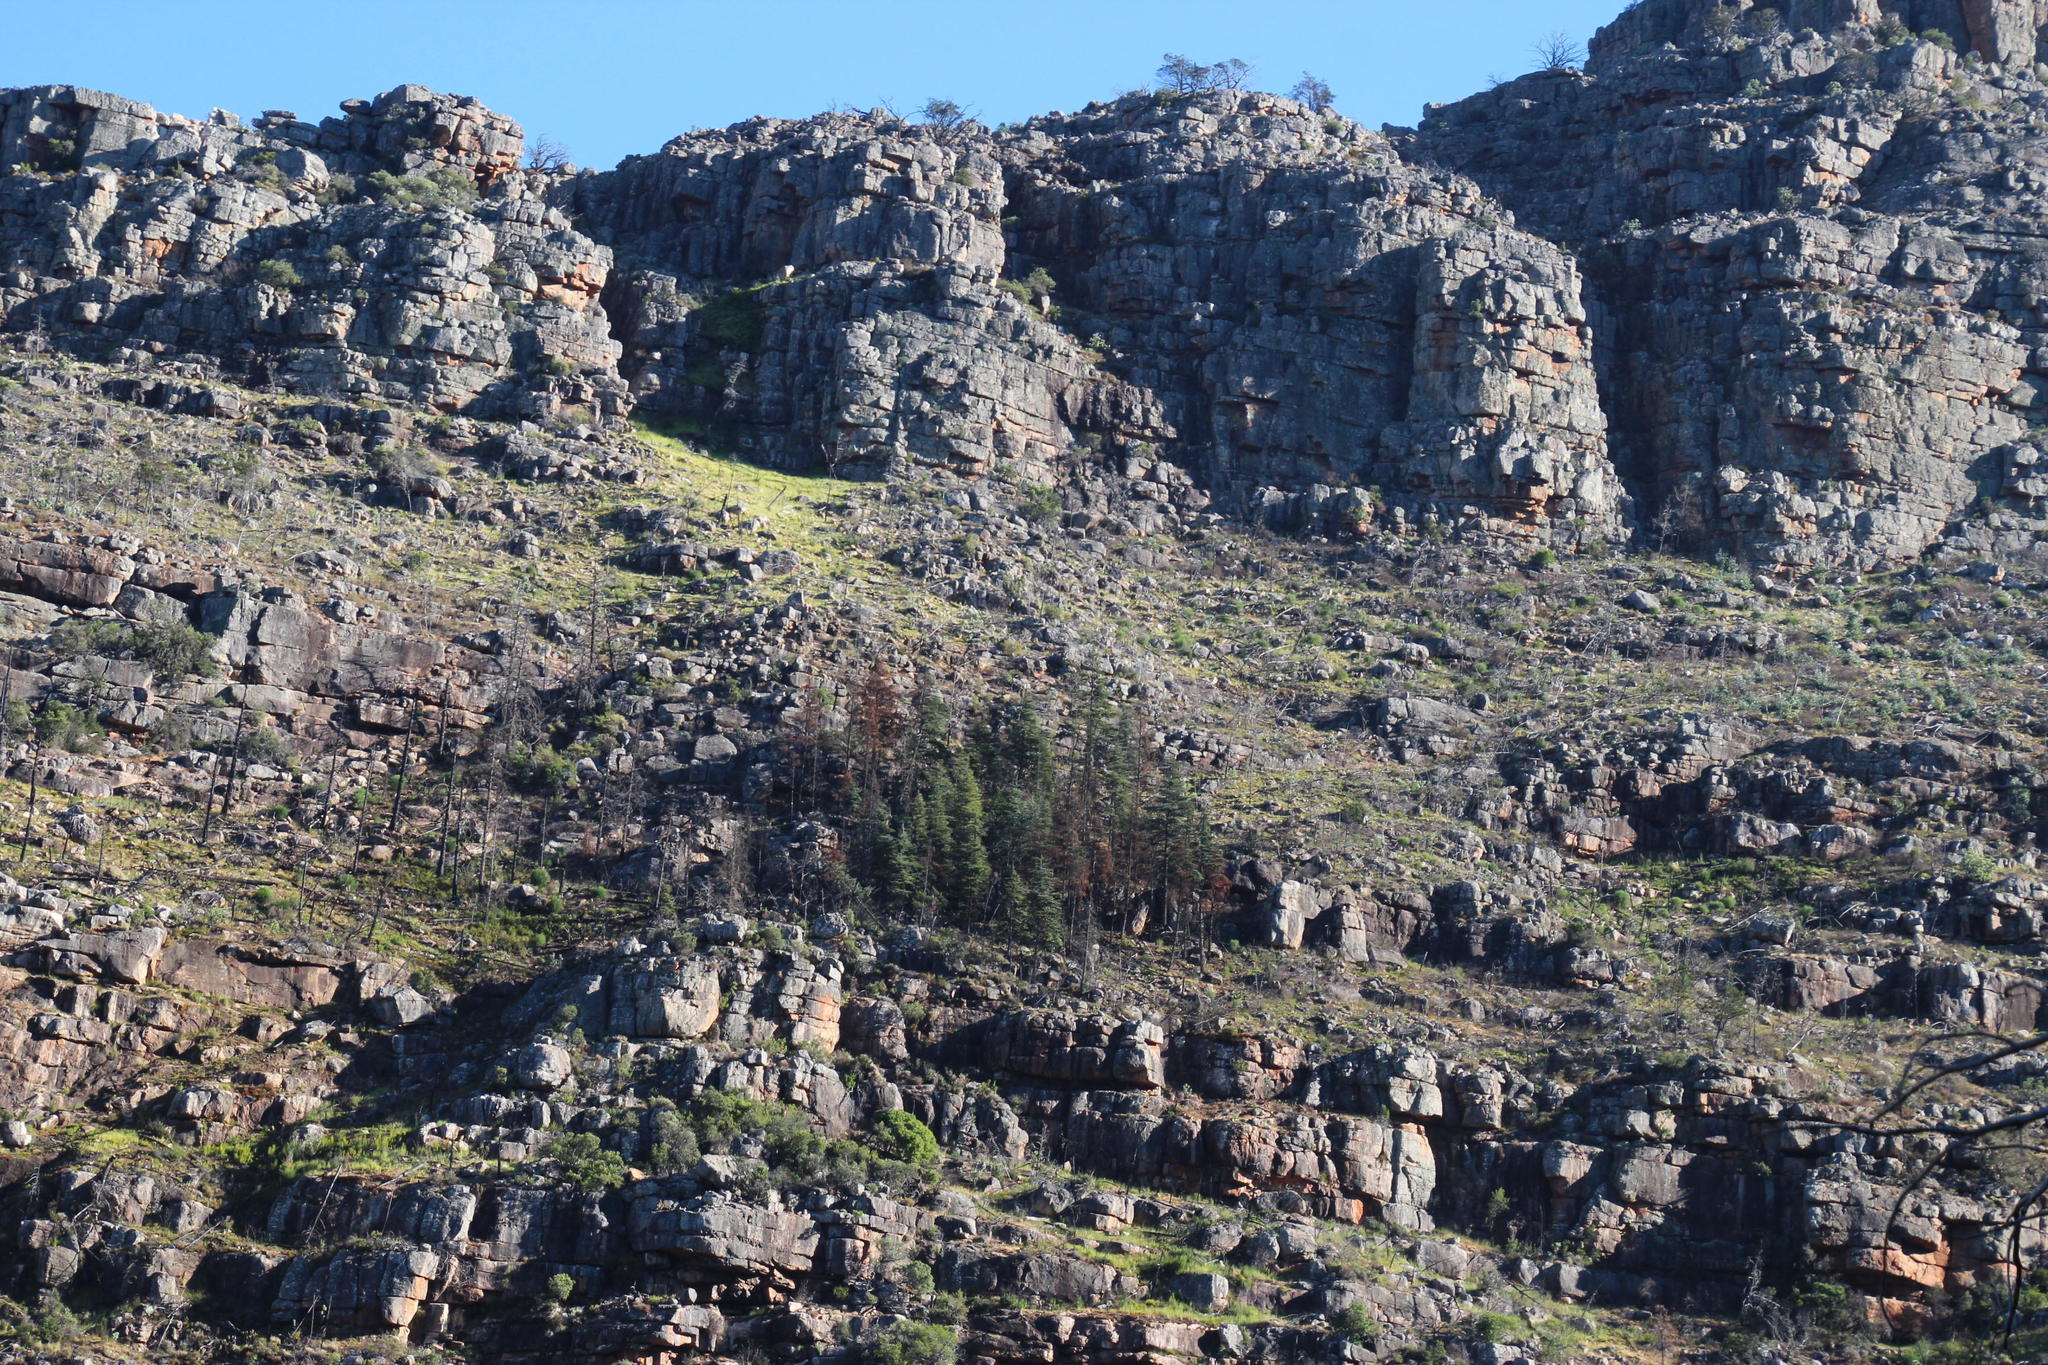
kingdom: Plantae
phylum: Tracheophyta
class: Pinopsida
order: Pinales
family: Cupressaceae
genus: Widdringtonia
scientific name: Widdringtonia nodiflora
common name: Cape cypress
